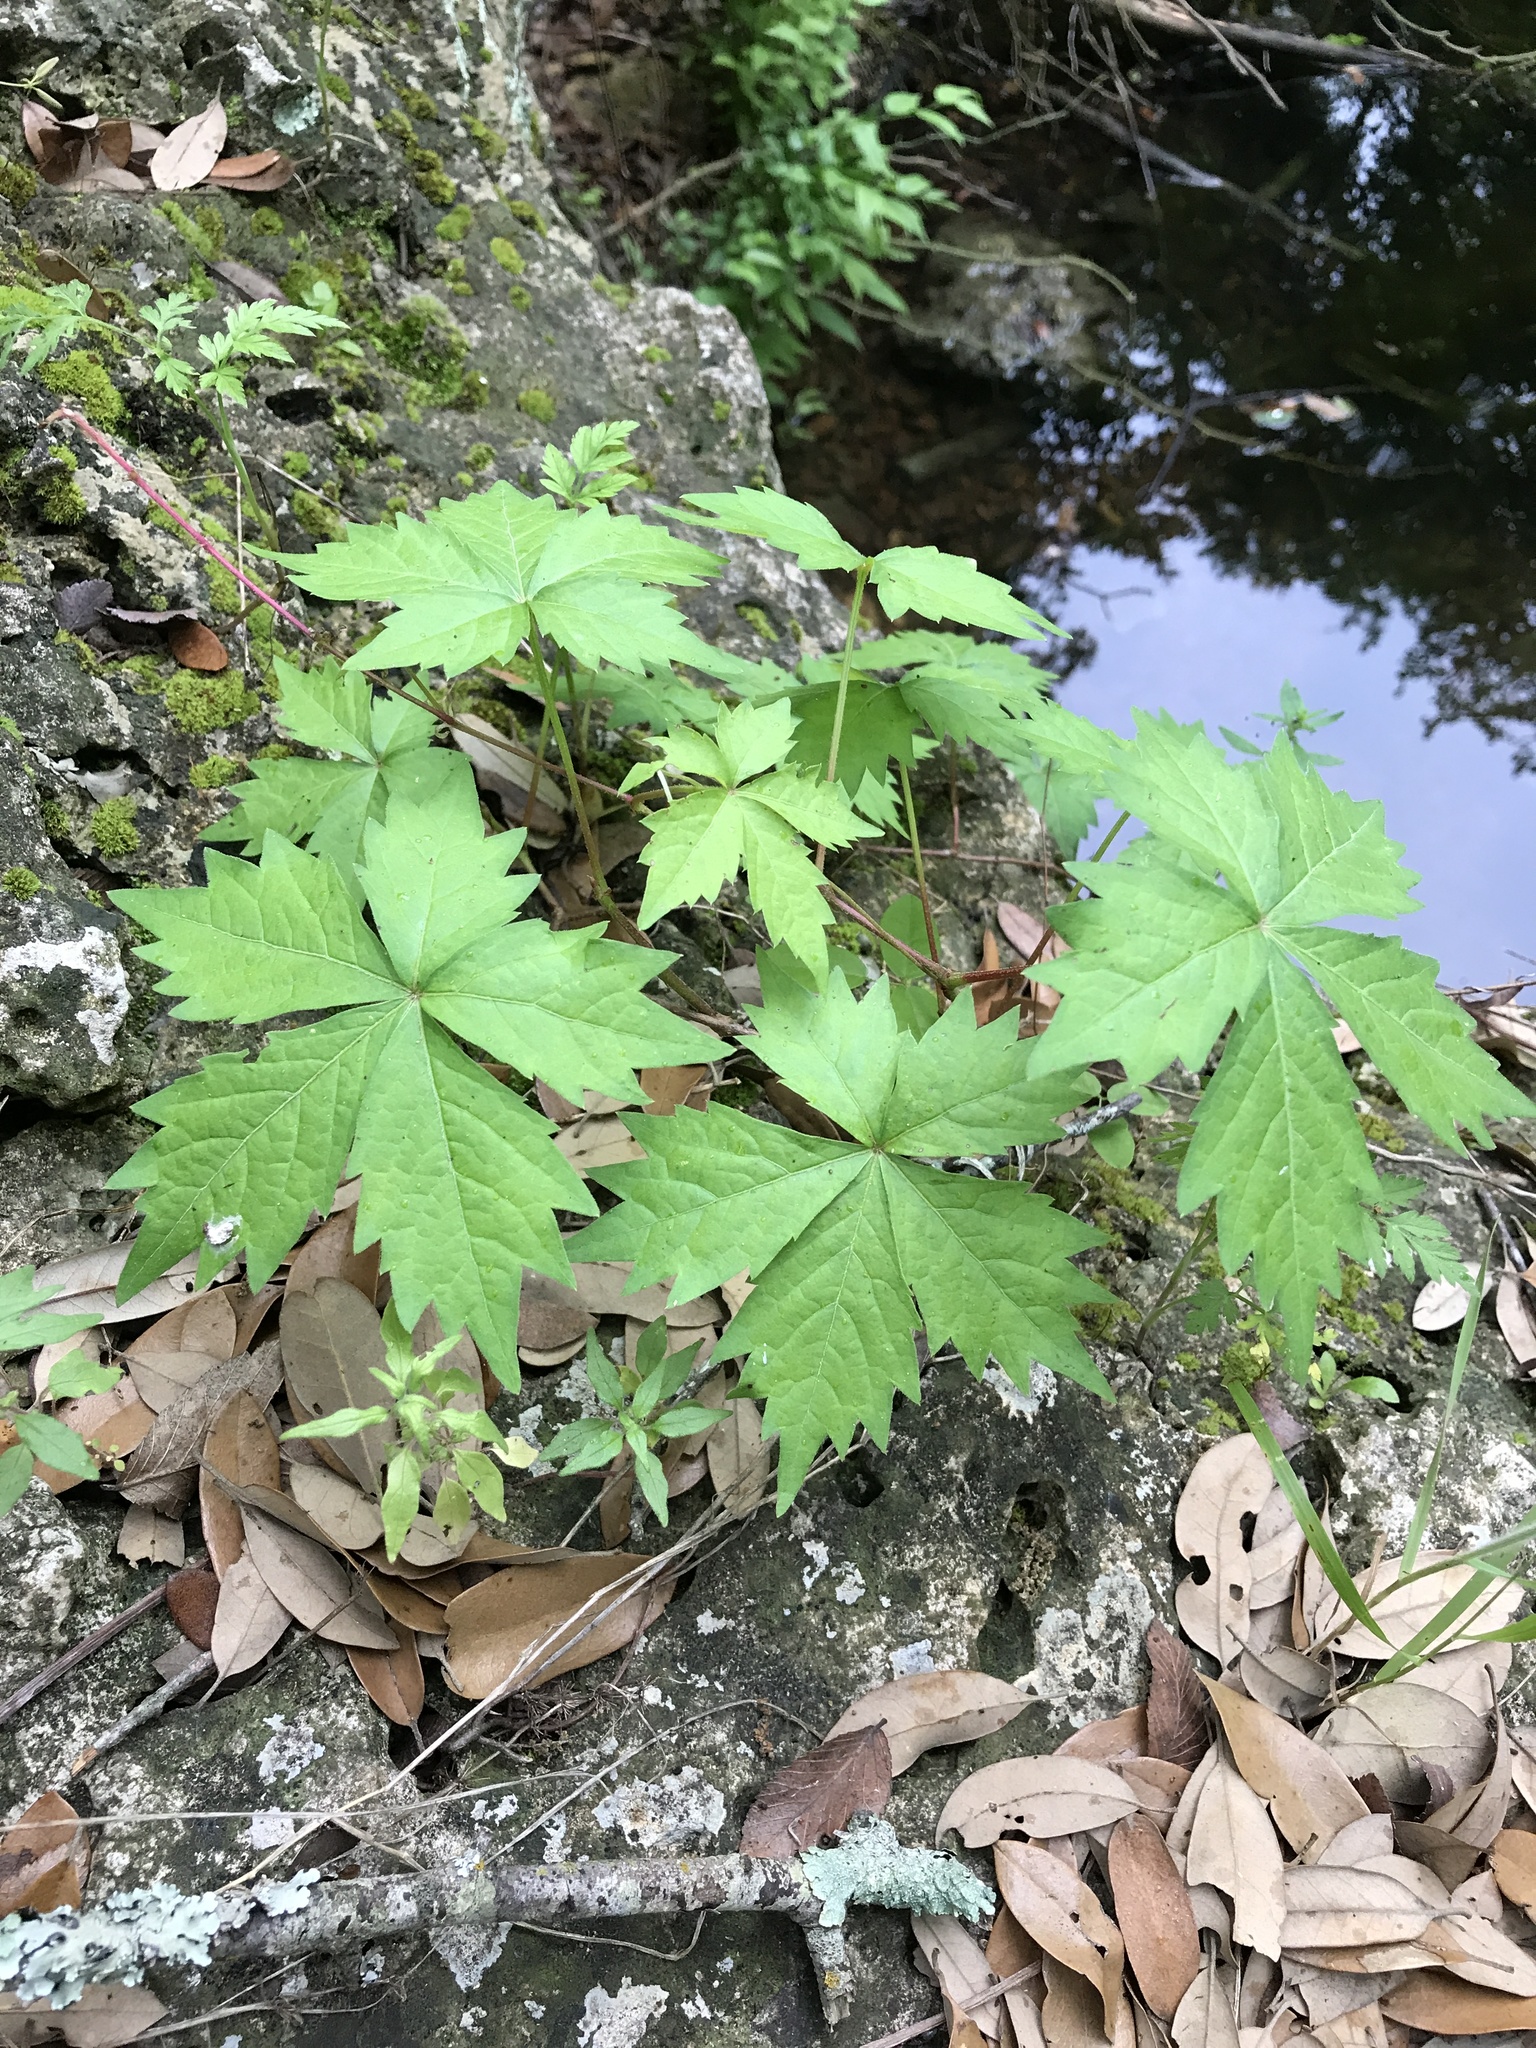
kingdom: Plantae
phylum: Tracheophyta
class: Magnoliopsida
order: Vitales
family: Vitaceae
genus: Parthenocissus
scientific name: Parthenocissus quinquefolia
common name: Virginia-creeper
